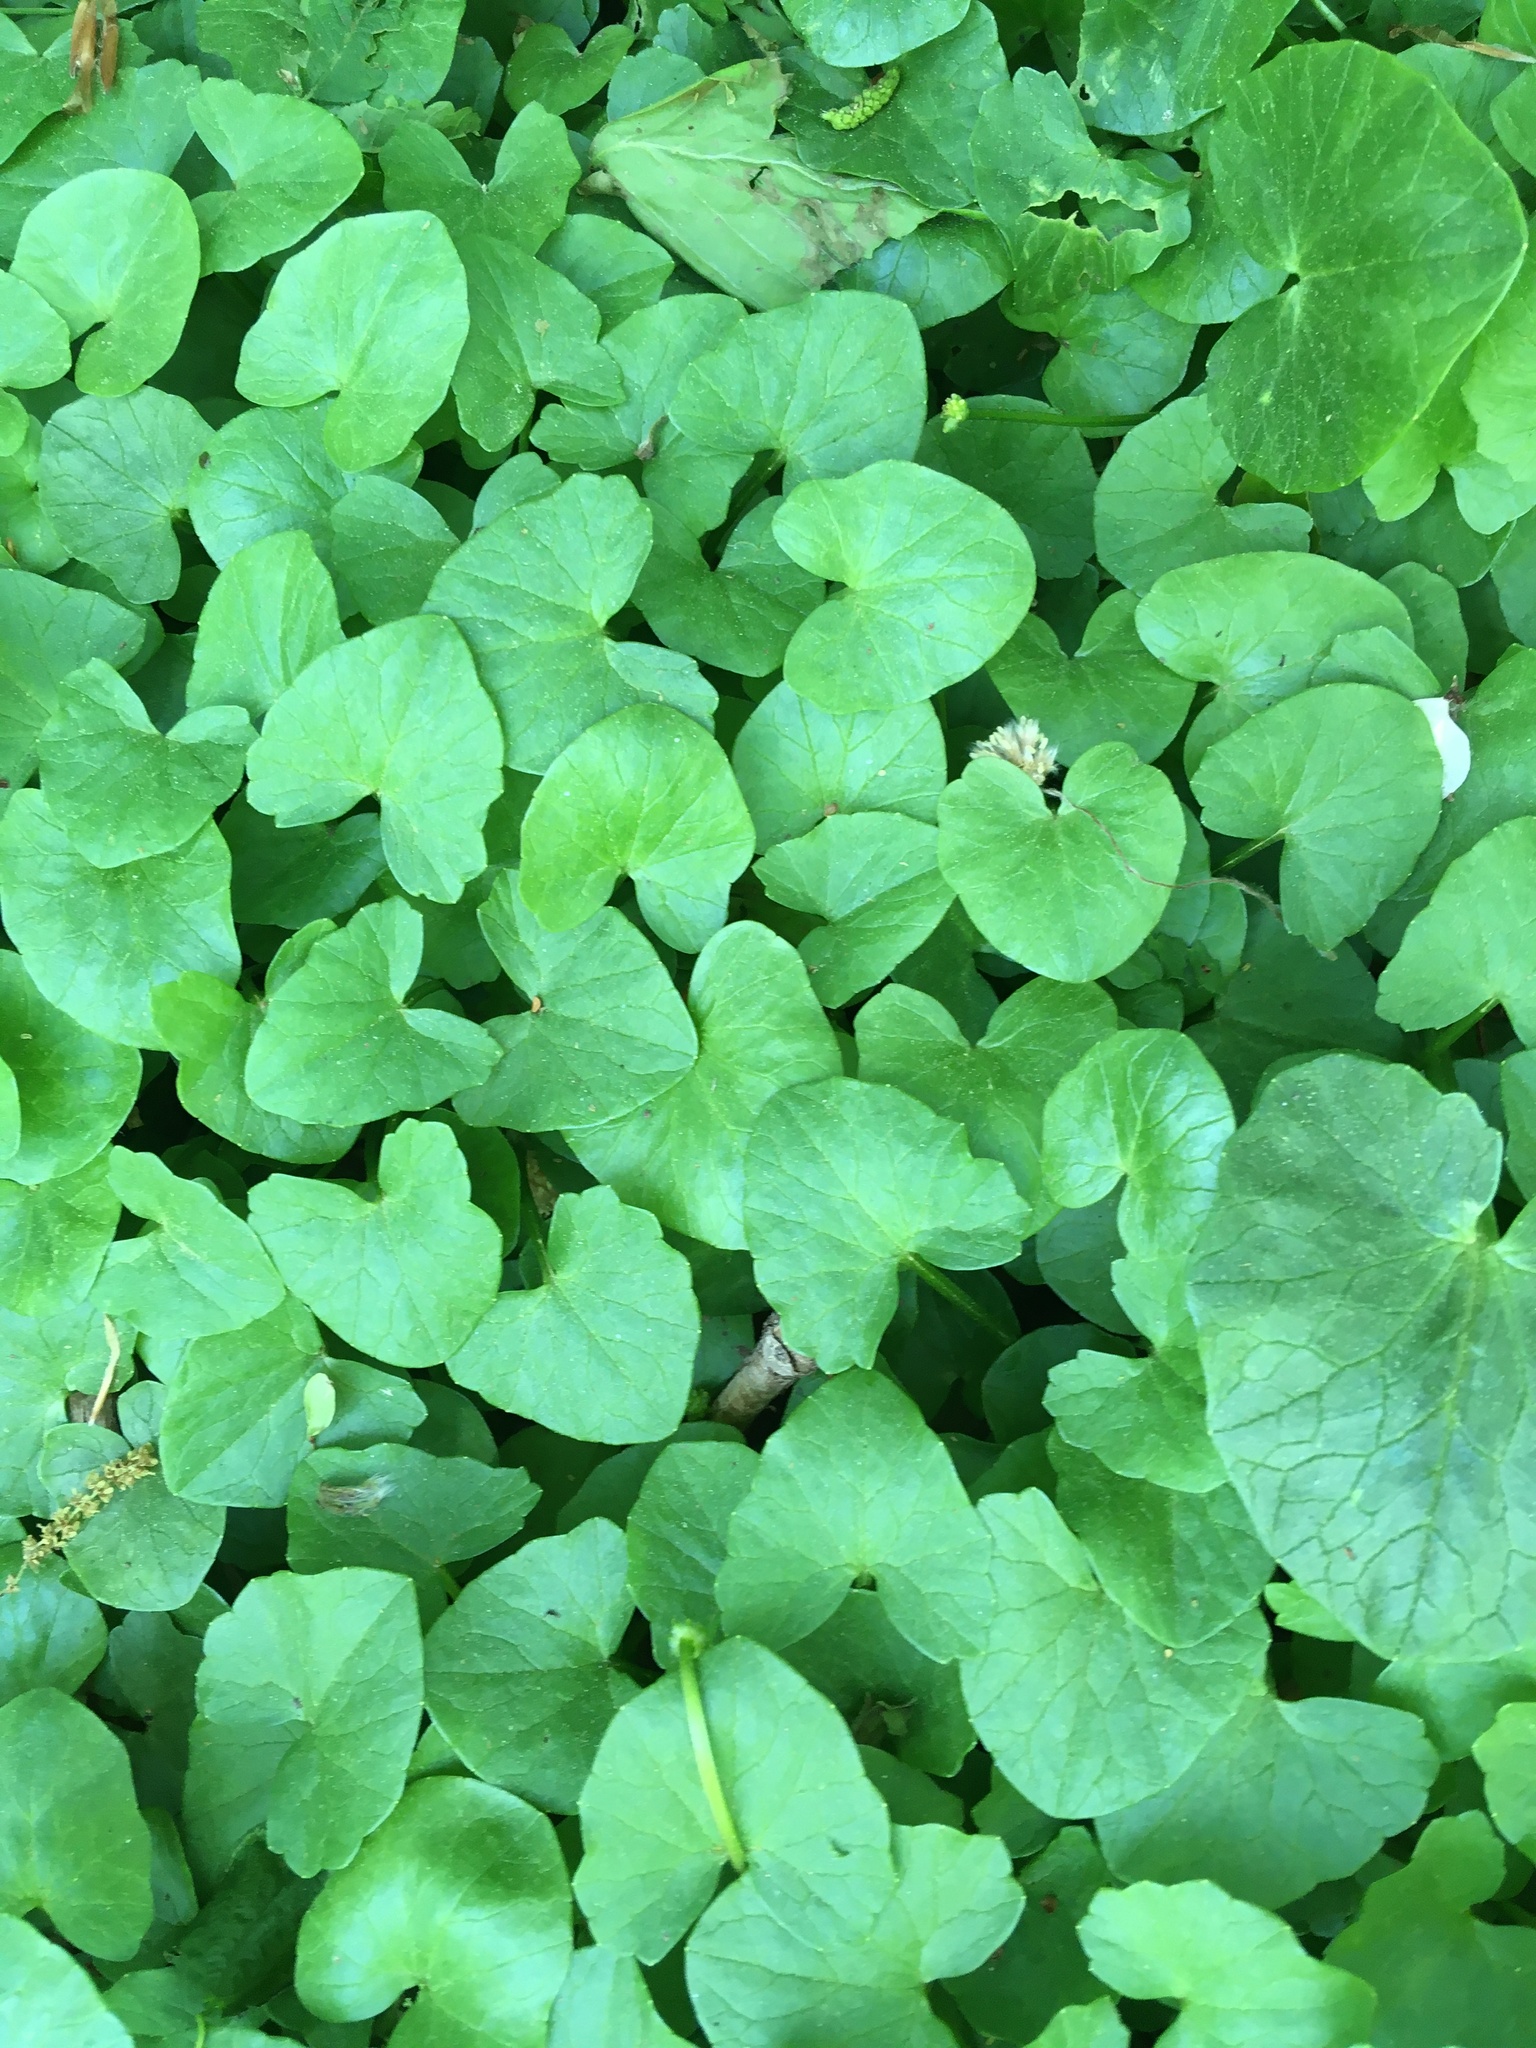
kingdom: Plantae
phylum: Tracheophyta
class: Magnoliopsida
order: Ranunculales
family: Ranunculaceae
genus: Ficaria
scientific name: Ficaria verna
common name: Lesser celandine
